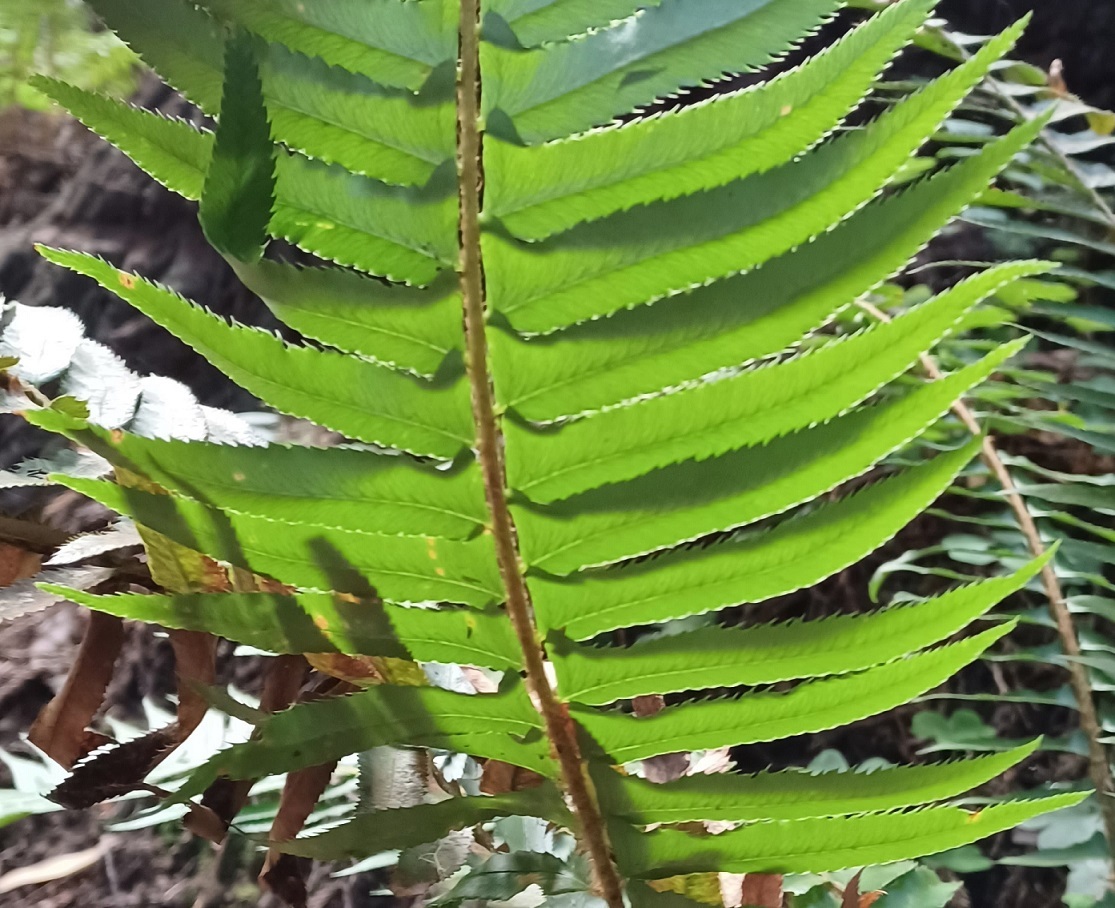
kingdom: Plantae
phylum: Tracheophyta
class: Polypodiopsida
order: Polypodiales
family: Dryopteridaceae
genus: Polystichum
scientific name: Polystichum munitum
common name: Western sword-fern
